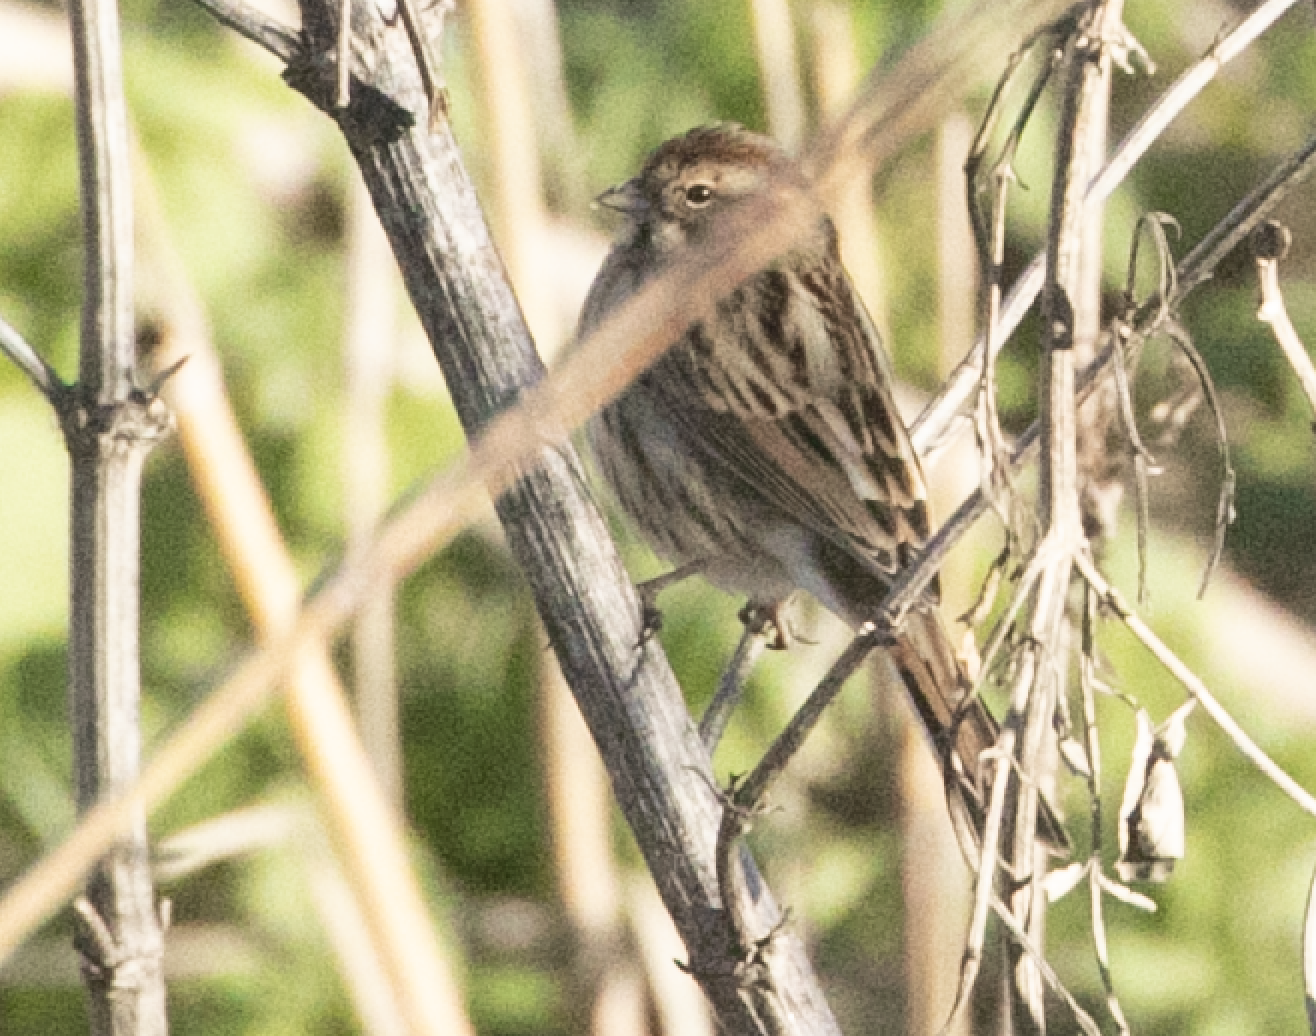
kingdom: Animalia
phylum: Chordata
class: Aves
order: Passeriformes
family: Emberizidae
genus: Emberiza
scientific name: Emberiza schoeniclus
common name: Reed bunting
